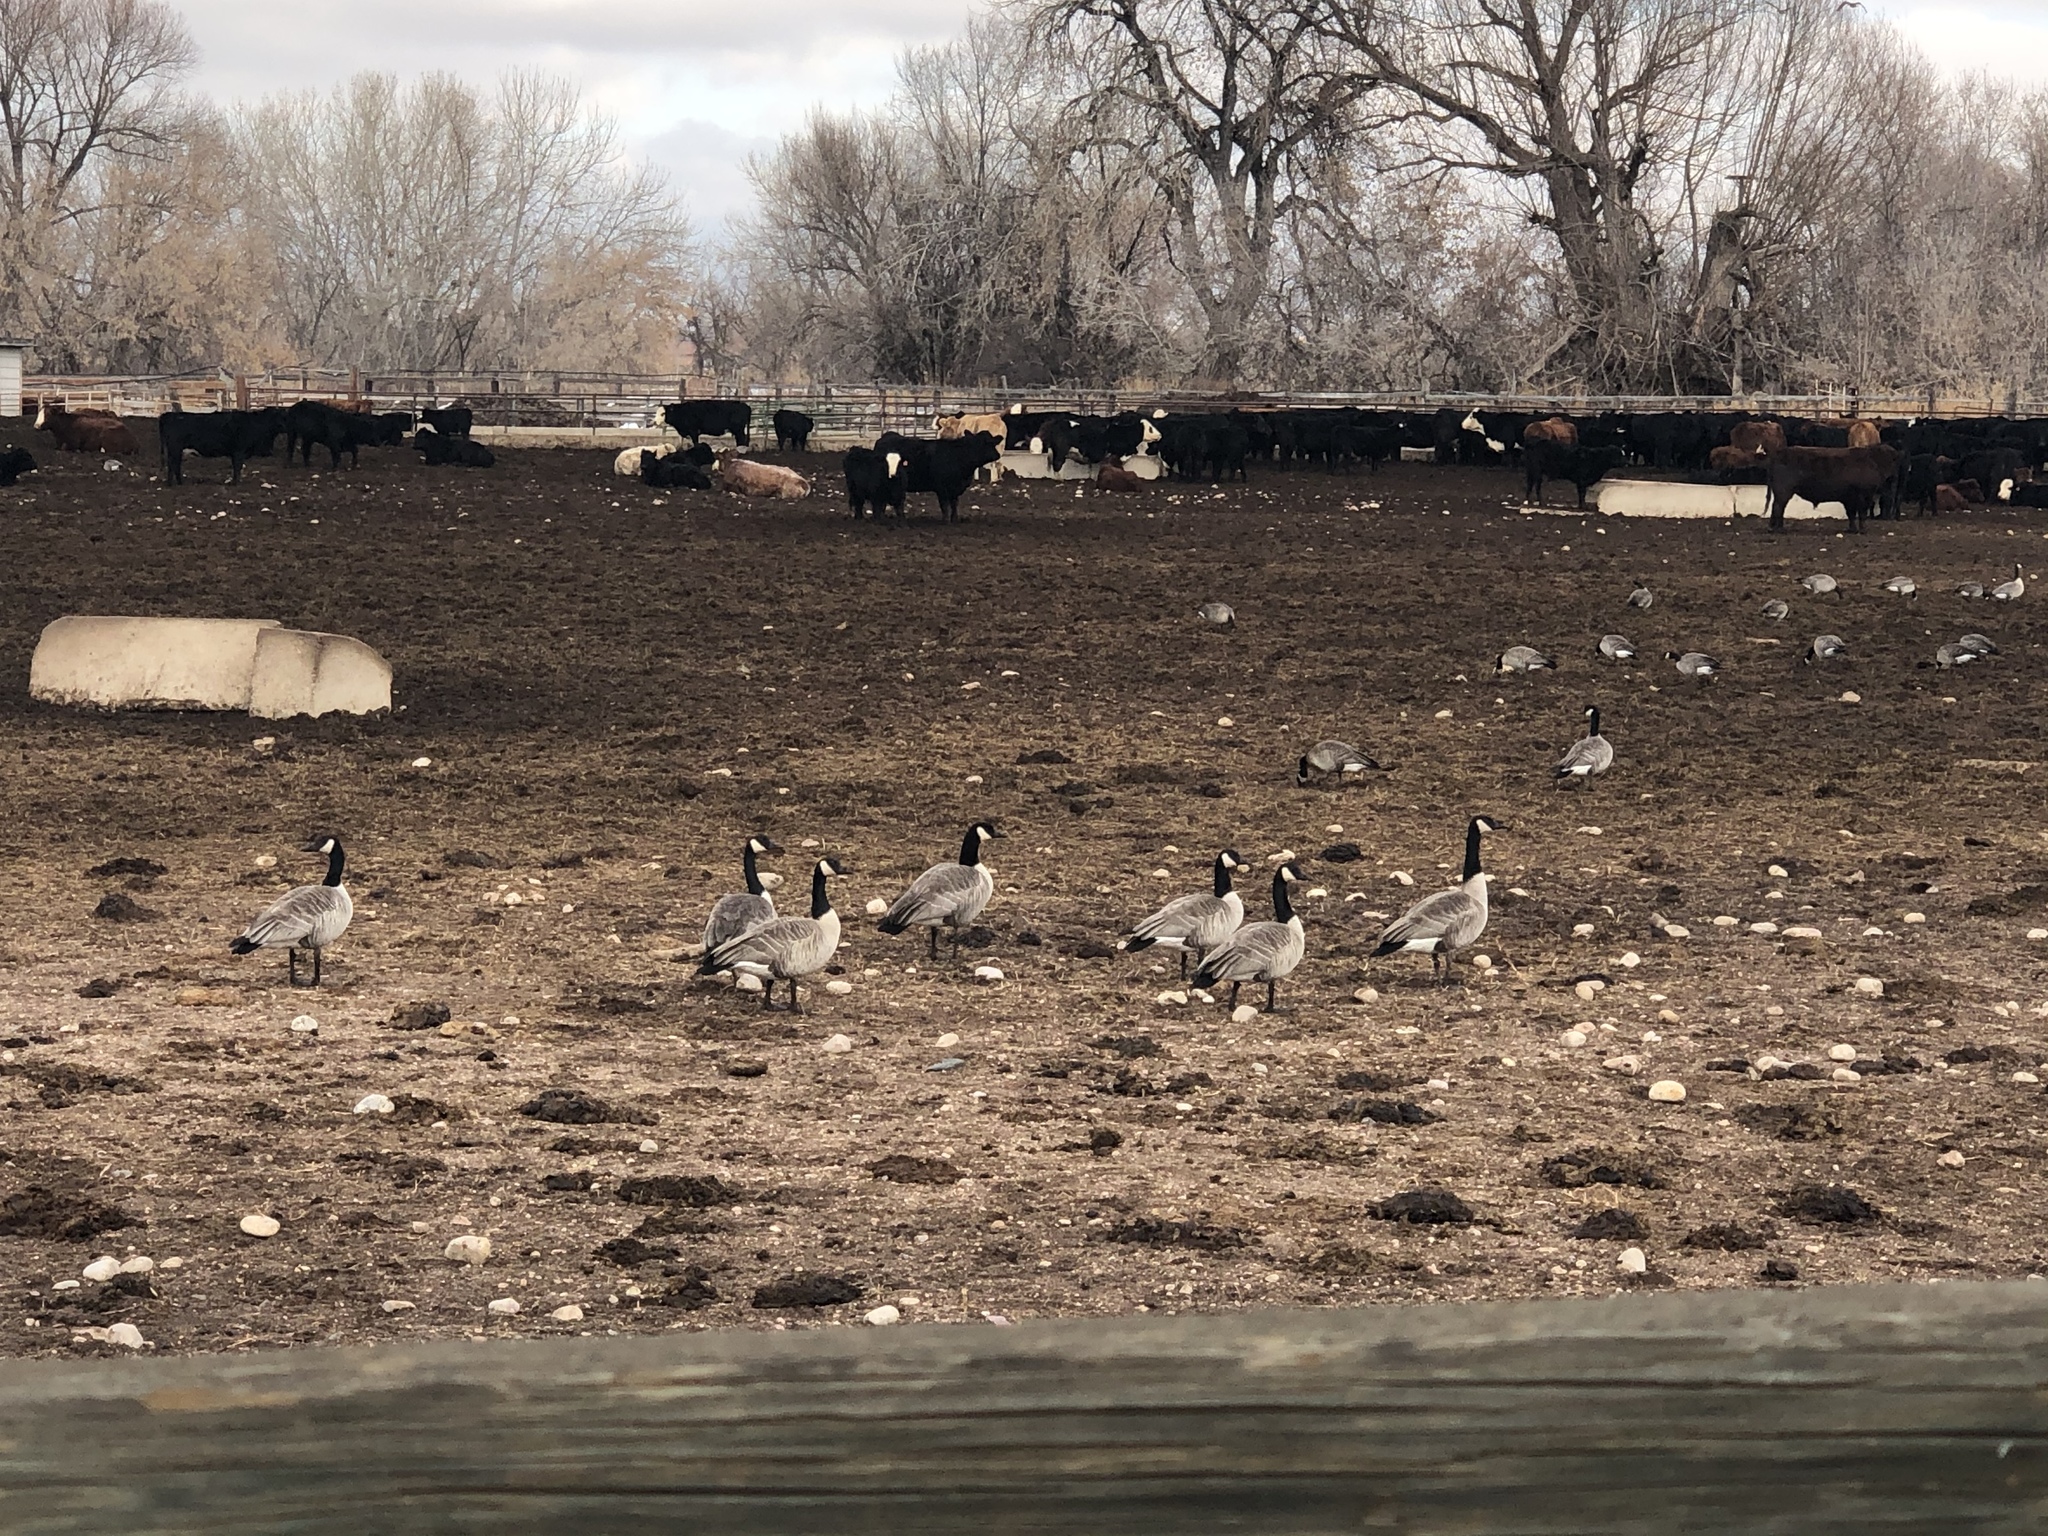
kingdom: Animalia
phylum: Chordata
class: Aves
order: Anseriformes
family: Anatidae
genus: Branta
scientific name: Branta canadensis
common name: Canada goose
